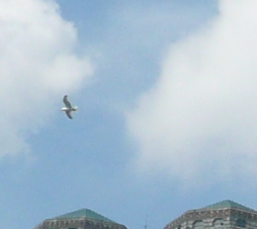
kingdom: Animalia
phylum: Chordata
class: Aves
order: Charadriiformes
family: Laridae
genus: Larus
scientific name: Larus
